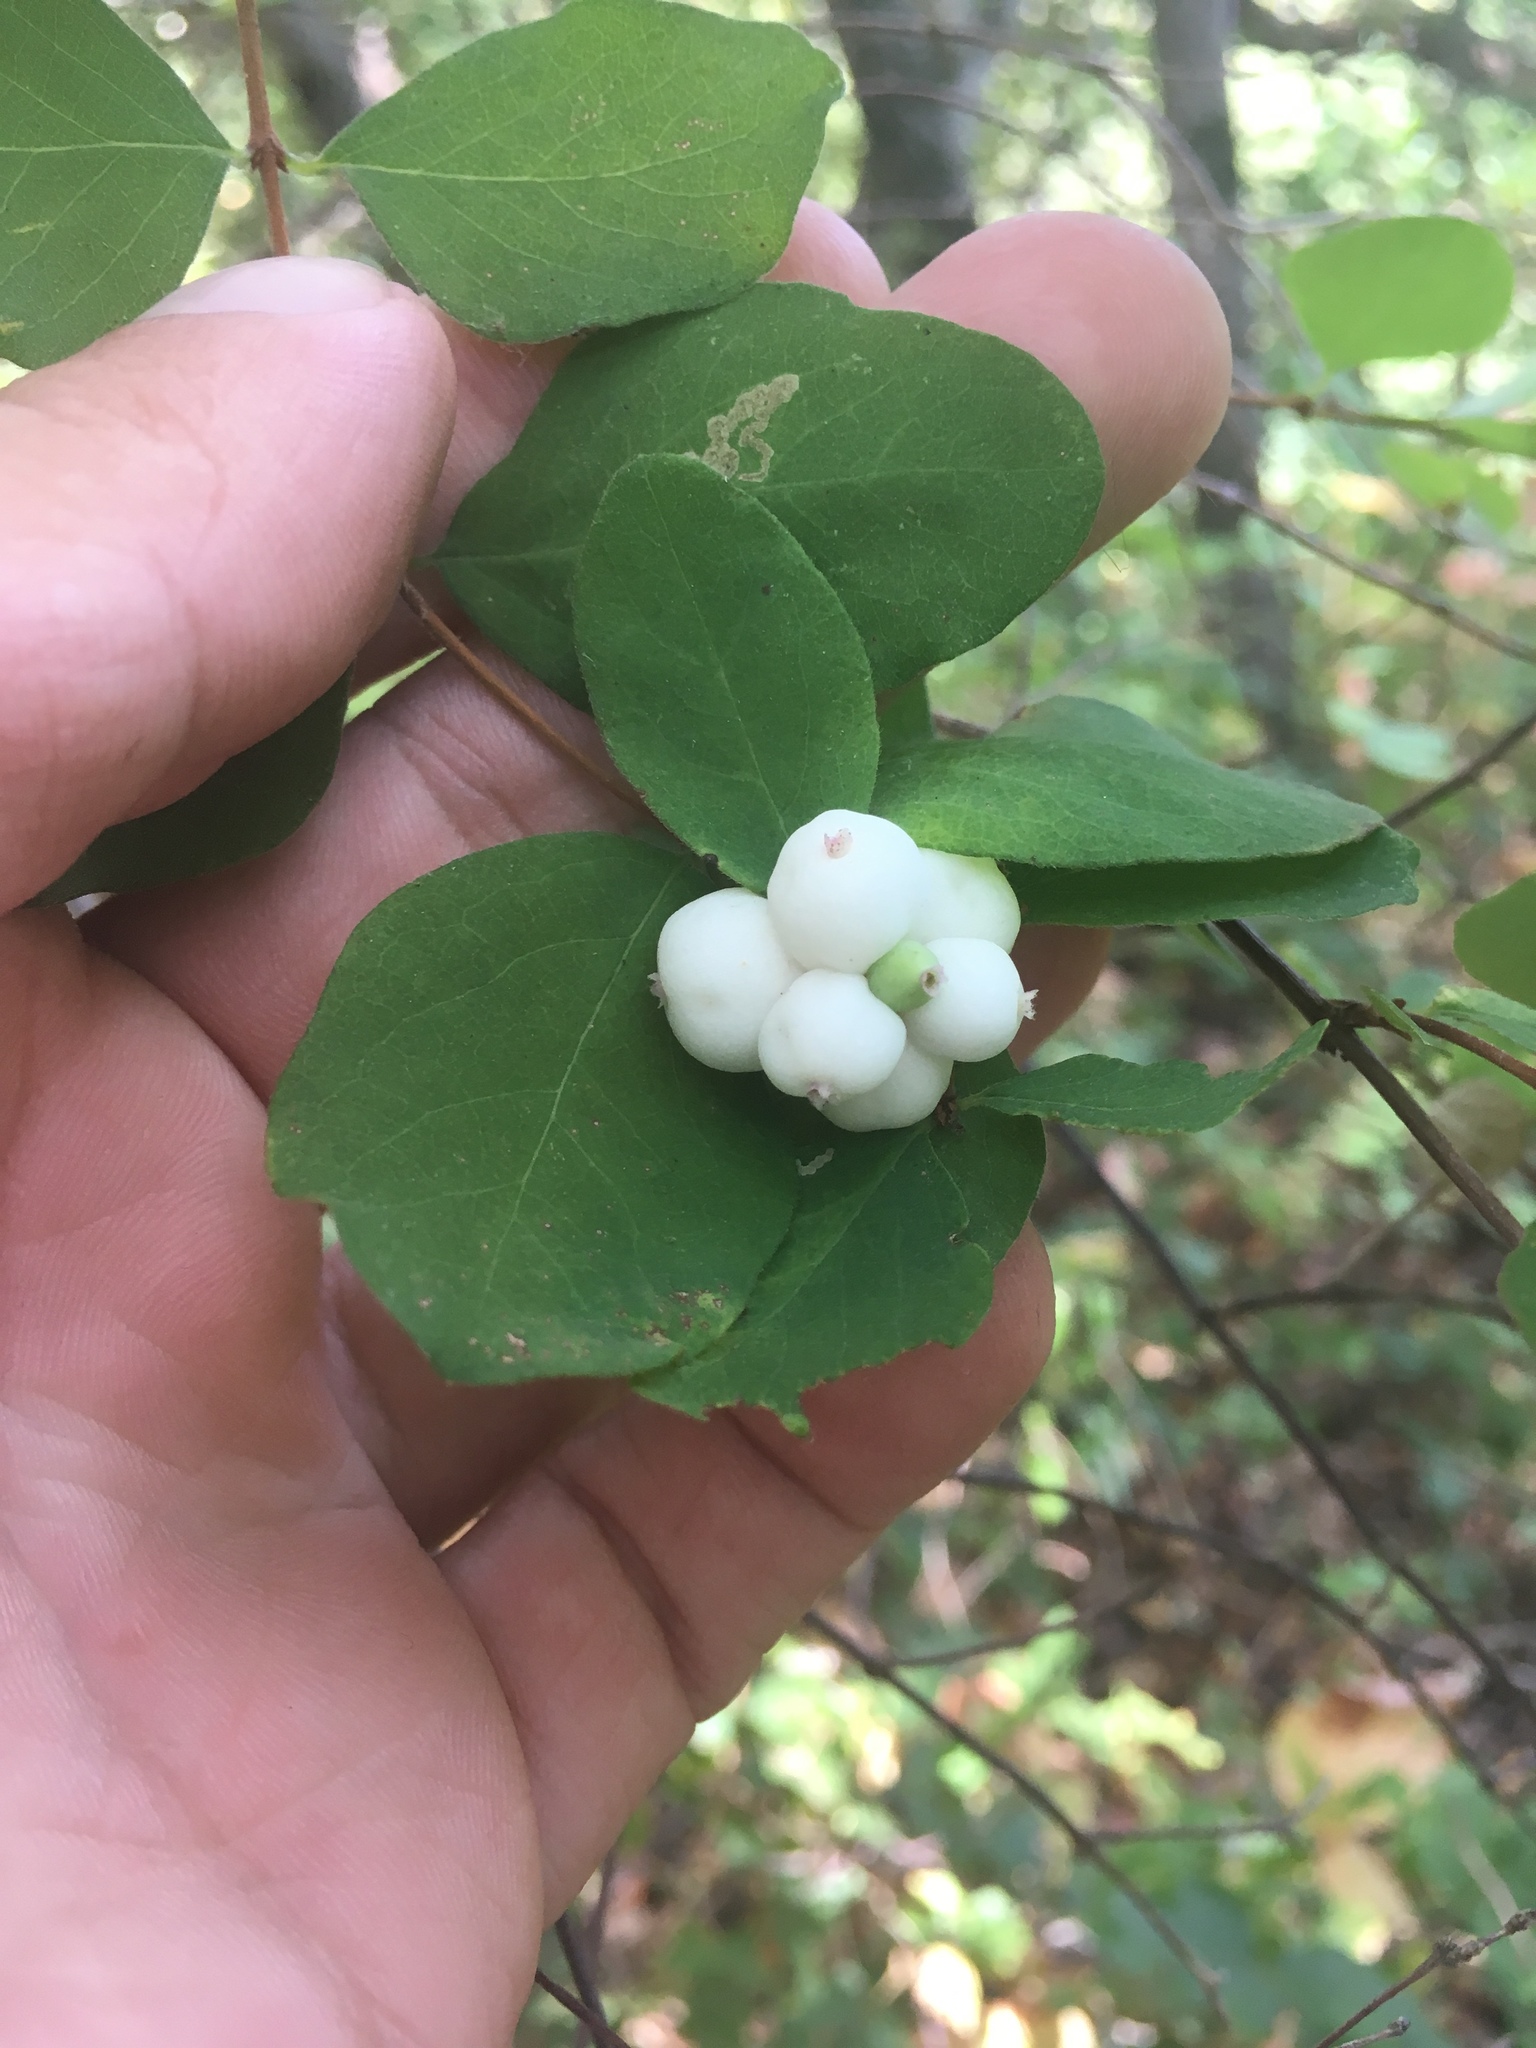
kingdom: Plantae
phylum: Tracheophyta
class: Magnoliopsida
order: Dipsacales
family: Caprifoliaceae
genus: Symphoricarpos
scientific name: Symphoricarpos albus
